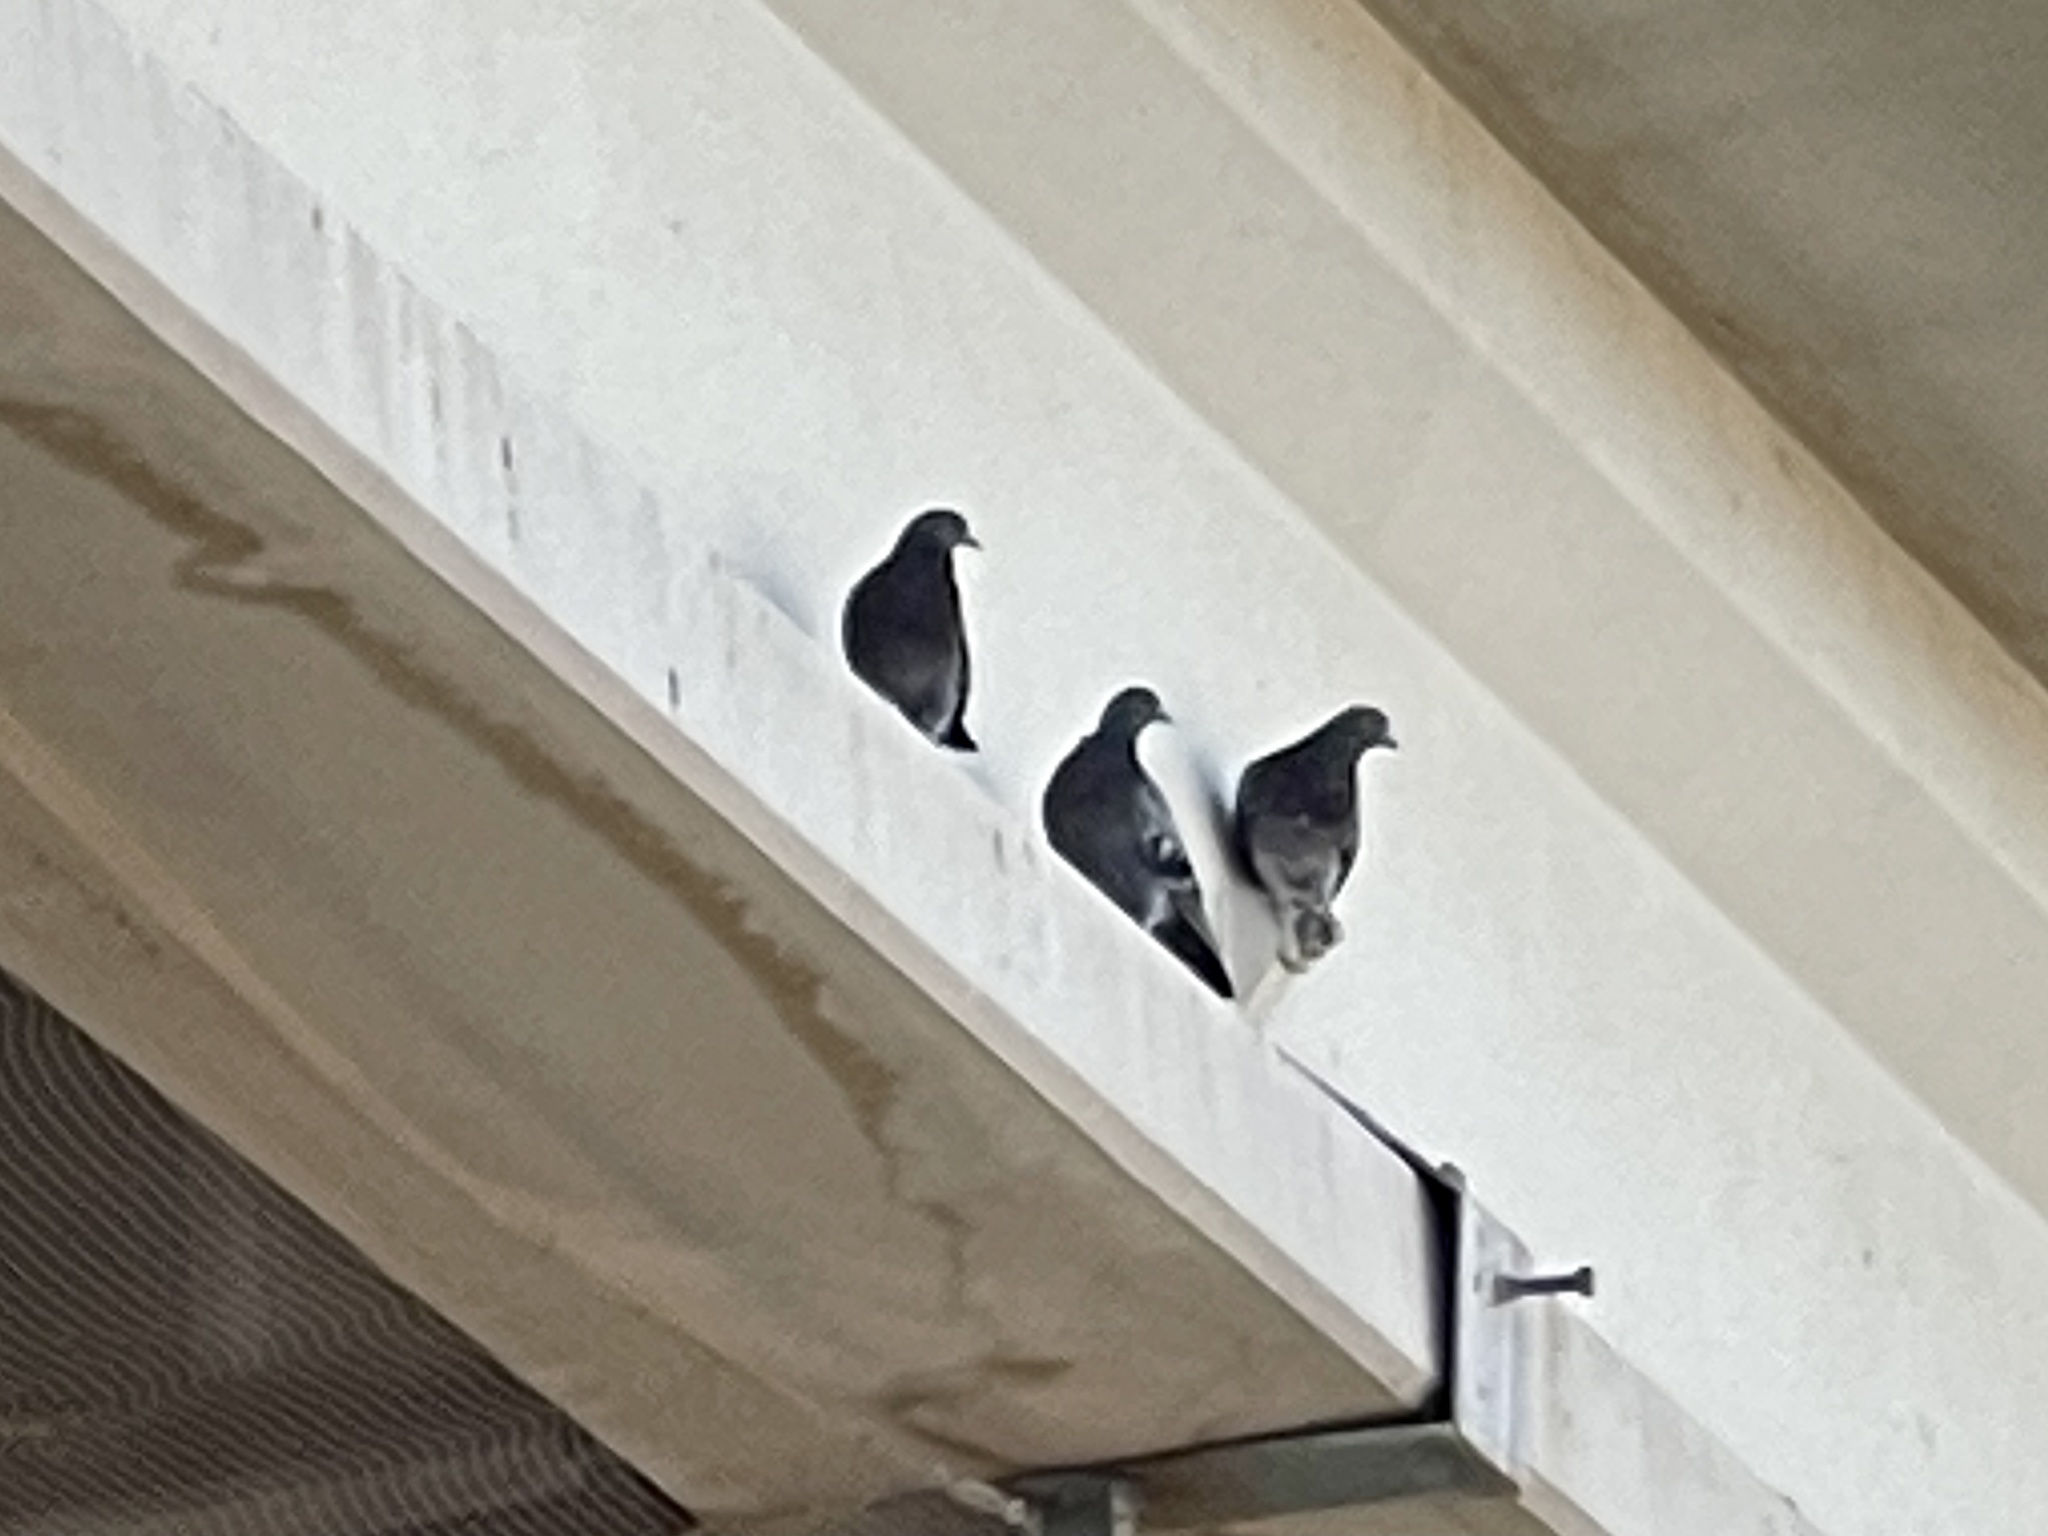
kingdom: Animalia
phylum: Chordata
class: Aves
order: Columbiformes
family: Columbidae
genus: Columba
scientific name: Columba livia
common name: Rock pigeon
